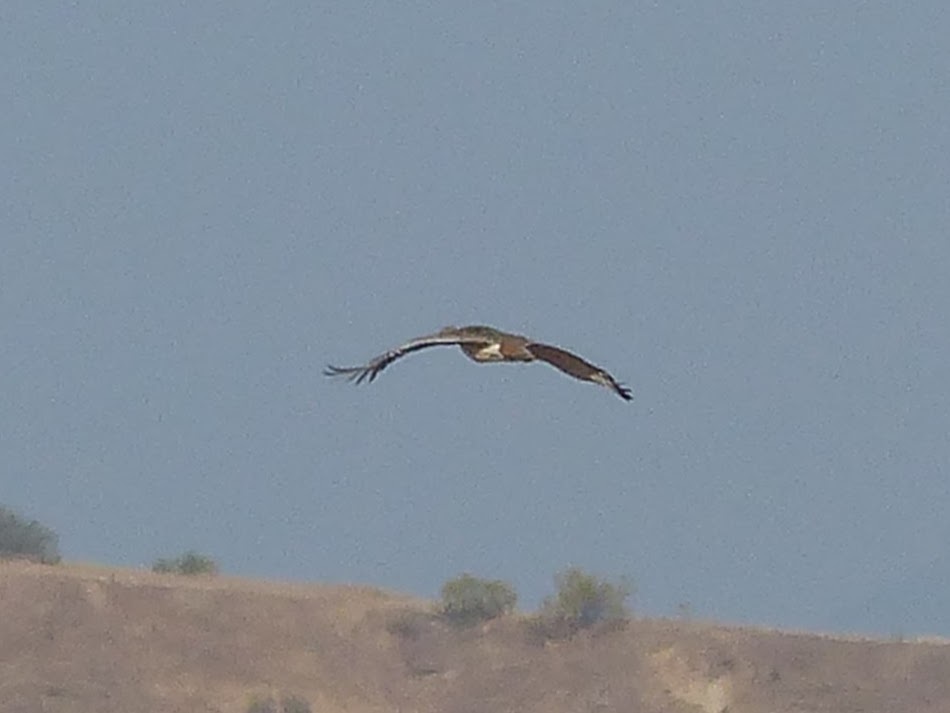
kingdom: Animalia
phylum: Chordata
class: Aves
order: Otidiformes
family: Otididae
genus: Otis
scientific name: Otis tarda
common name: Great bustard
